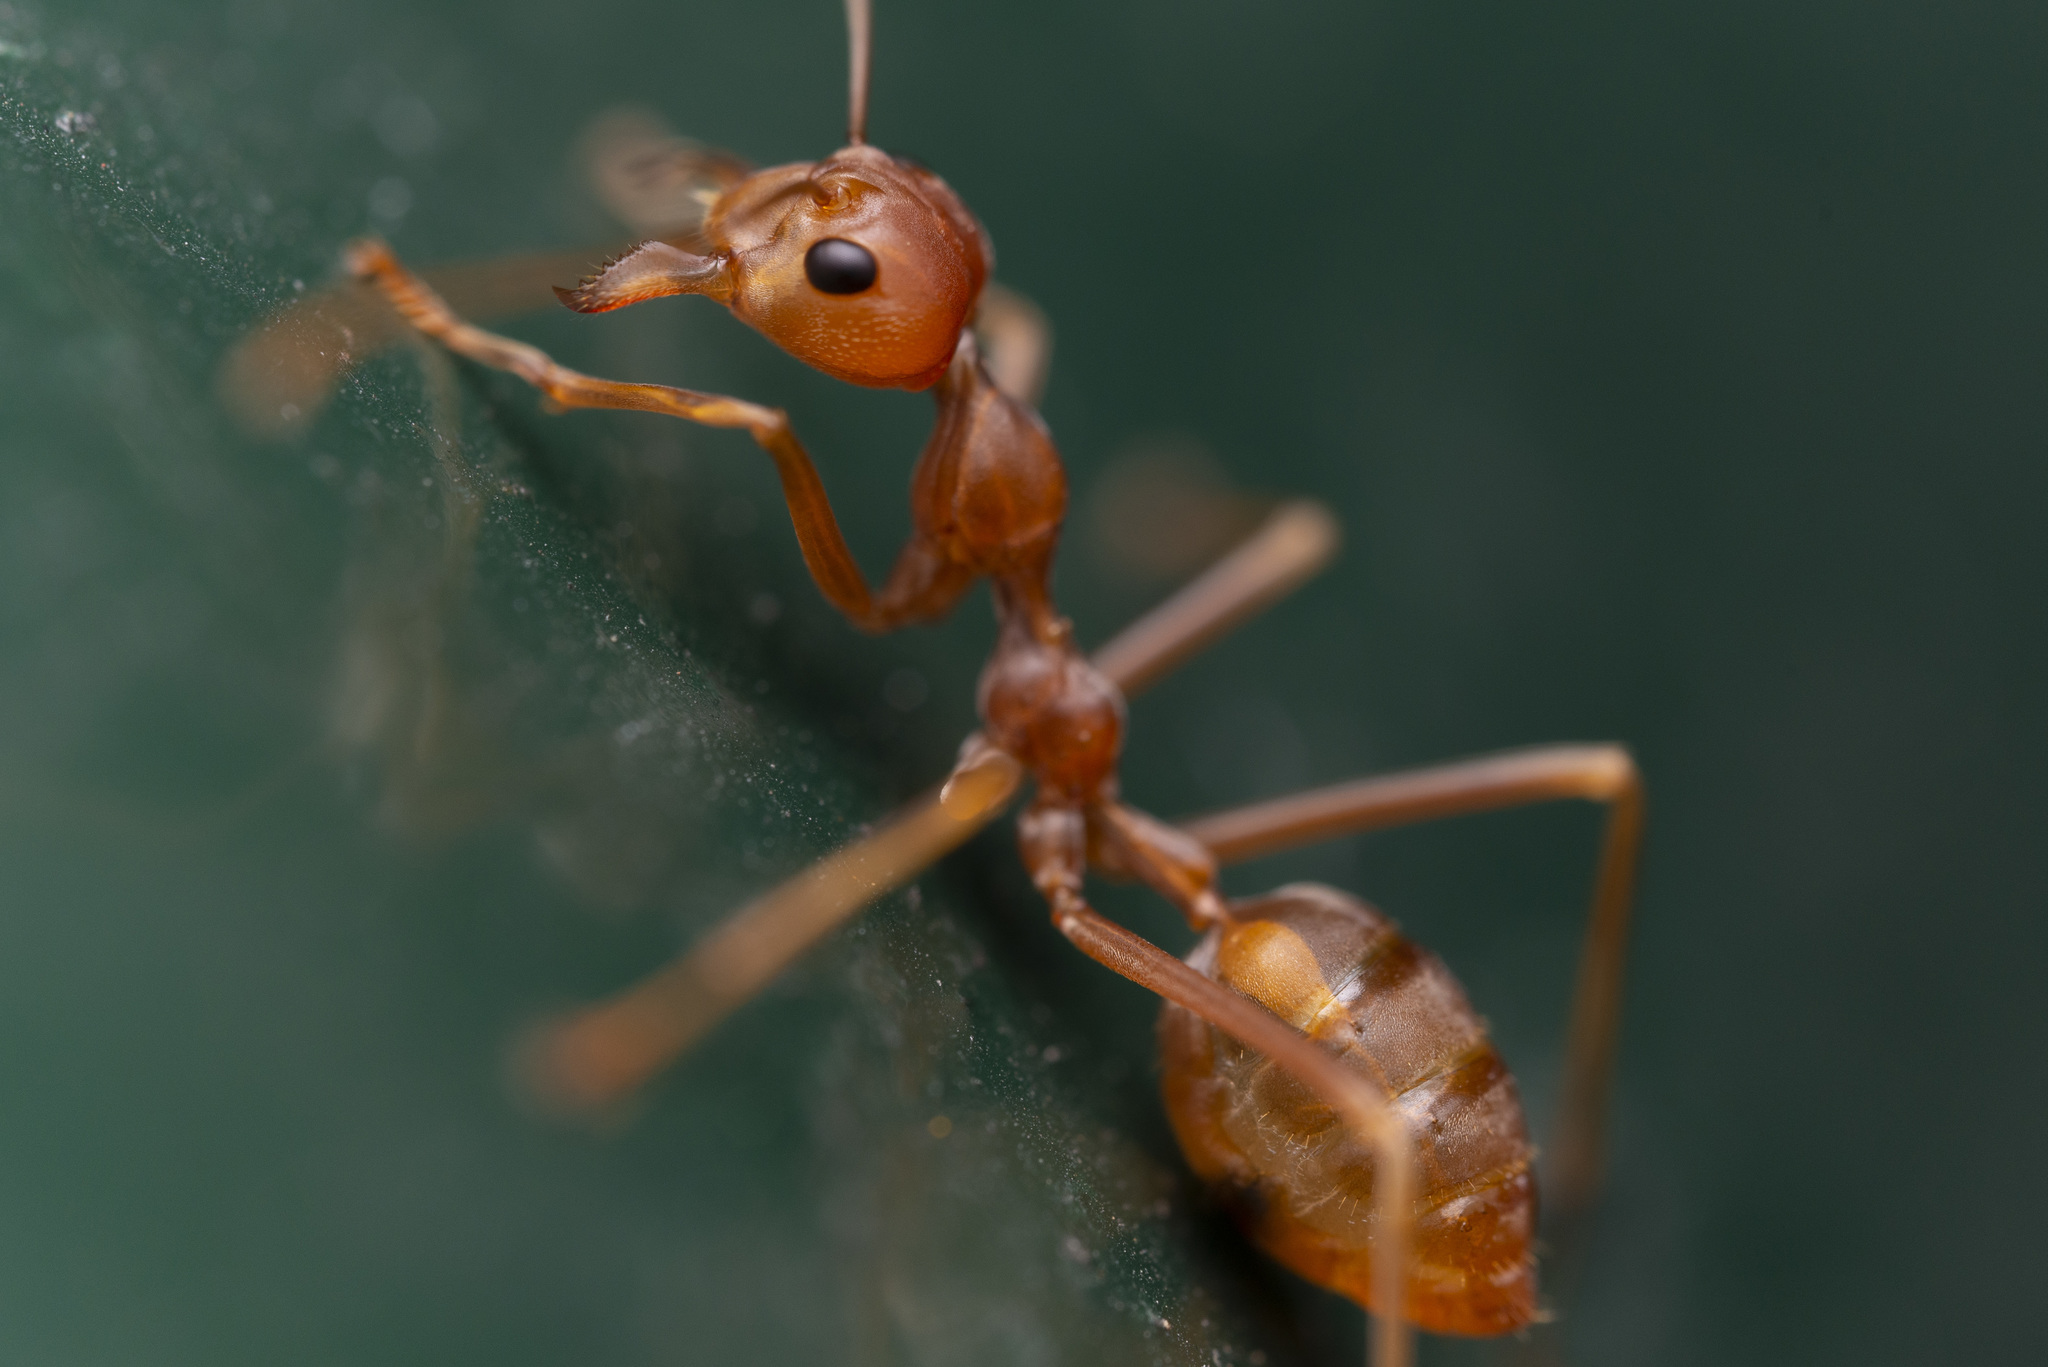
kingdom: Animalia
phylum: Arthropoda
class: Insecta
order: Hymenoptera
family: Formicidae
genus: Oecophylla
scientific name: Oecophylla smaragdina
